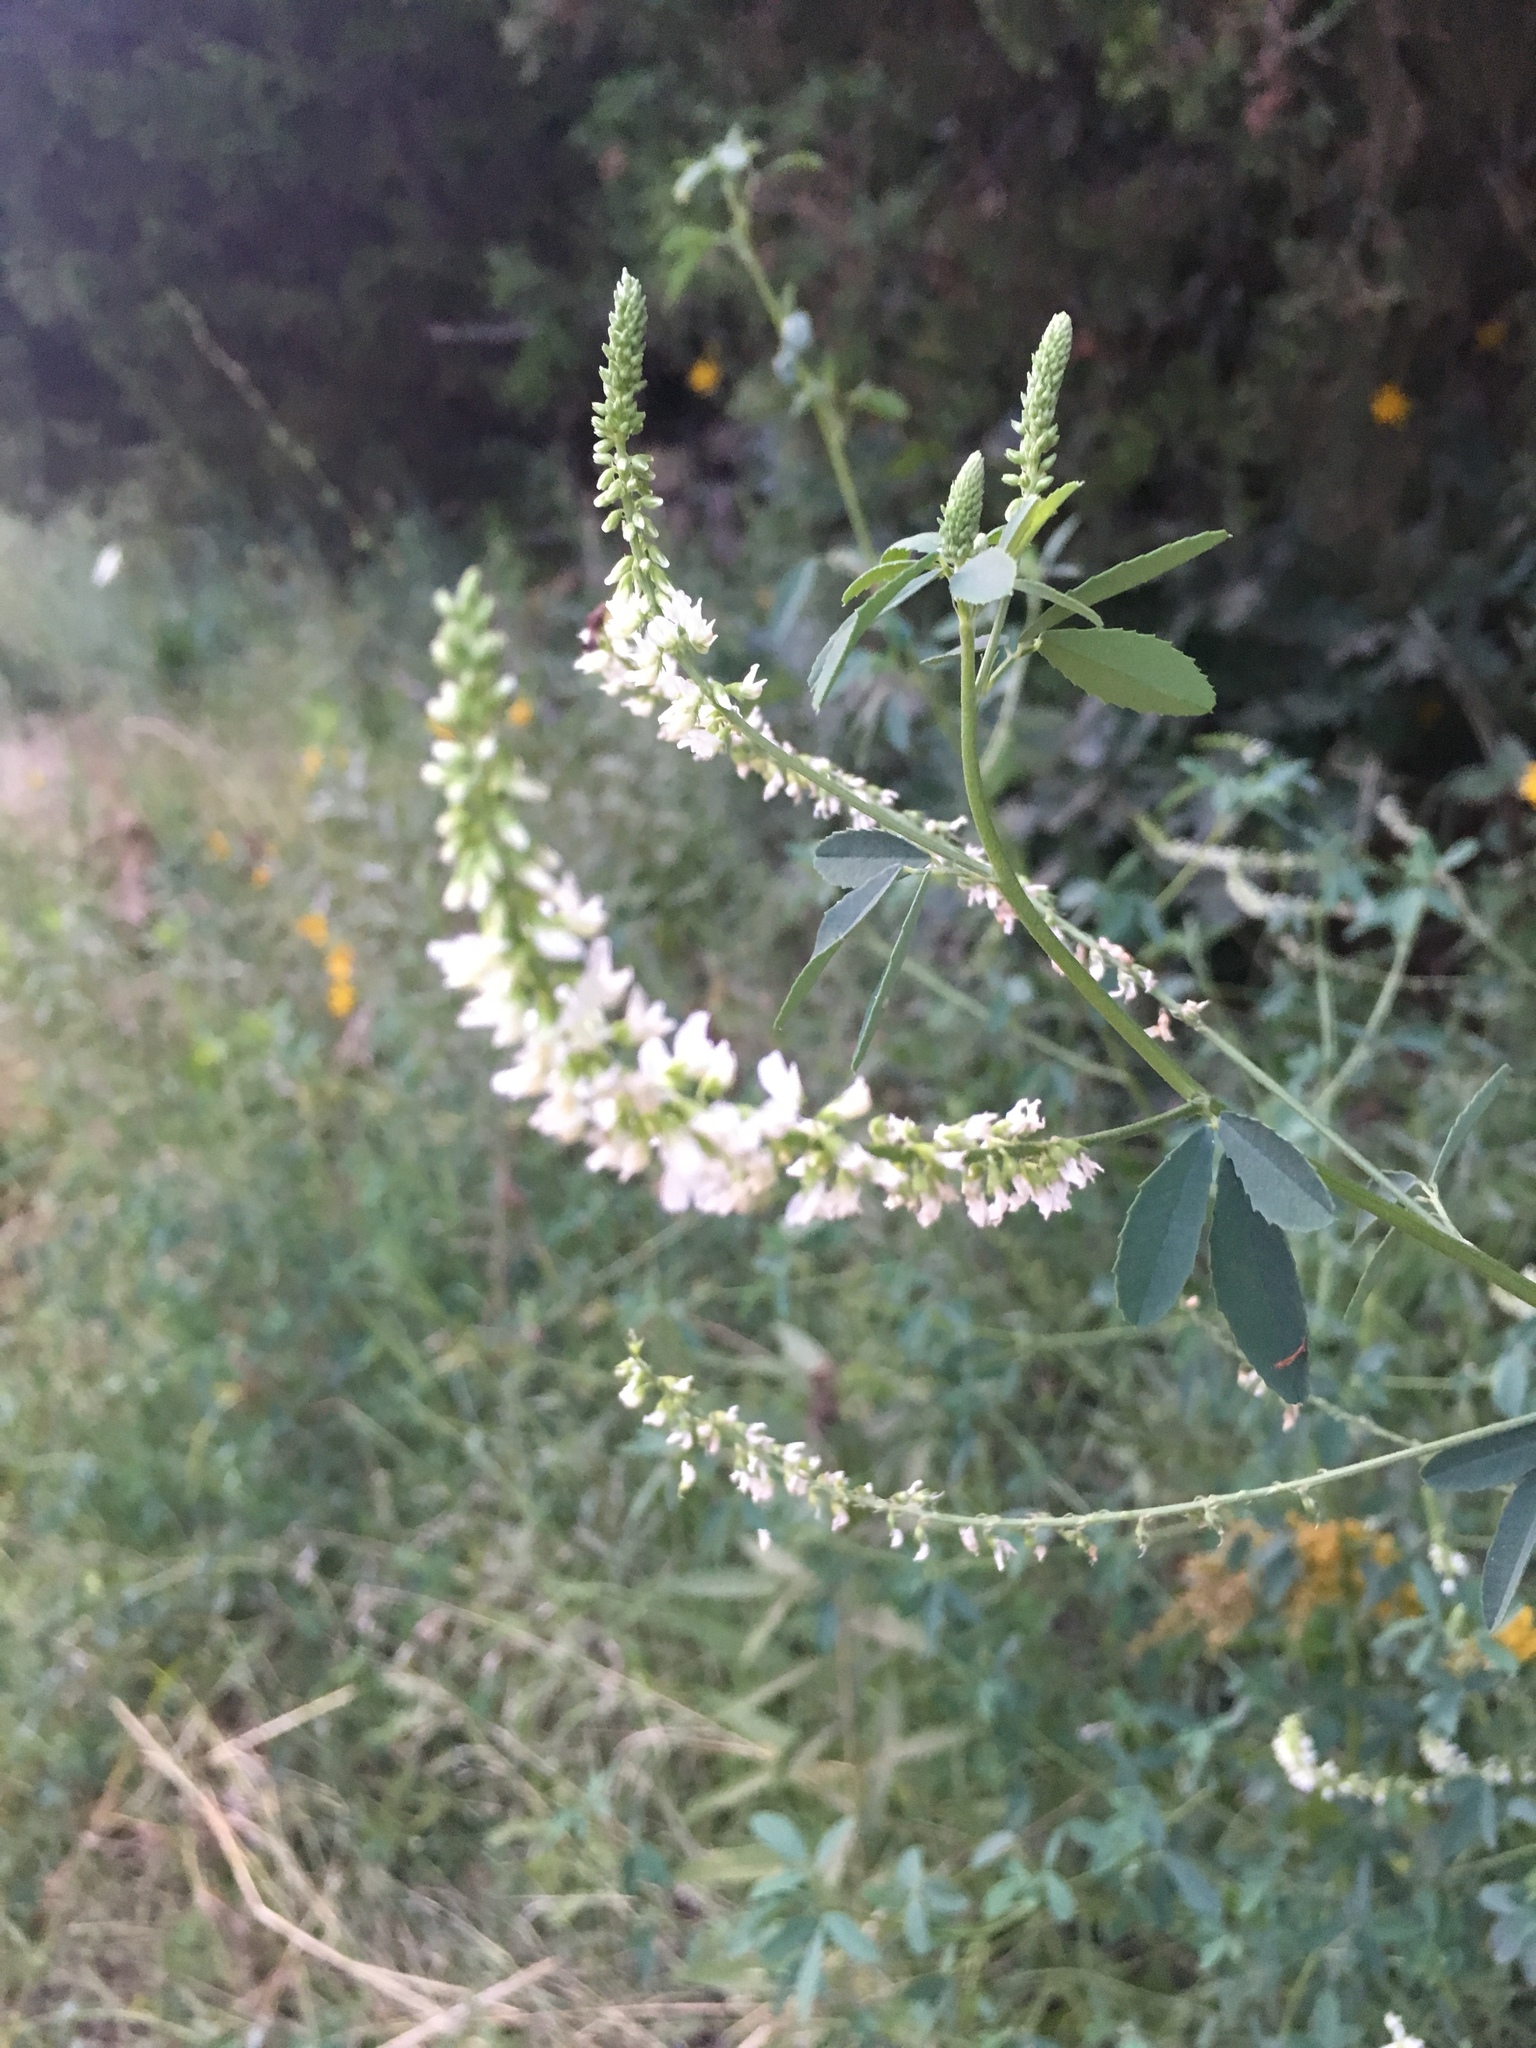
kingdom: Plantae
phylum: Tracheophyta
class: Magnoliopsida
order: Fabales
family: Fabaceae
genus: Melilotus
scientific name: Melilotus albus
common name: White melilot
